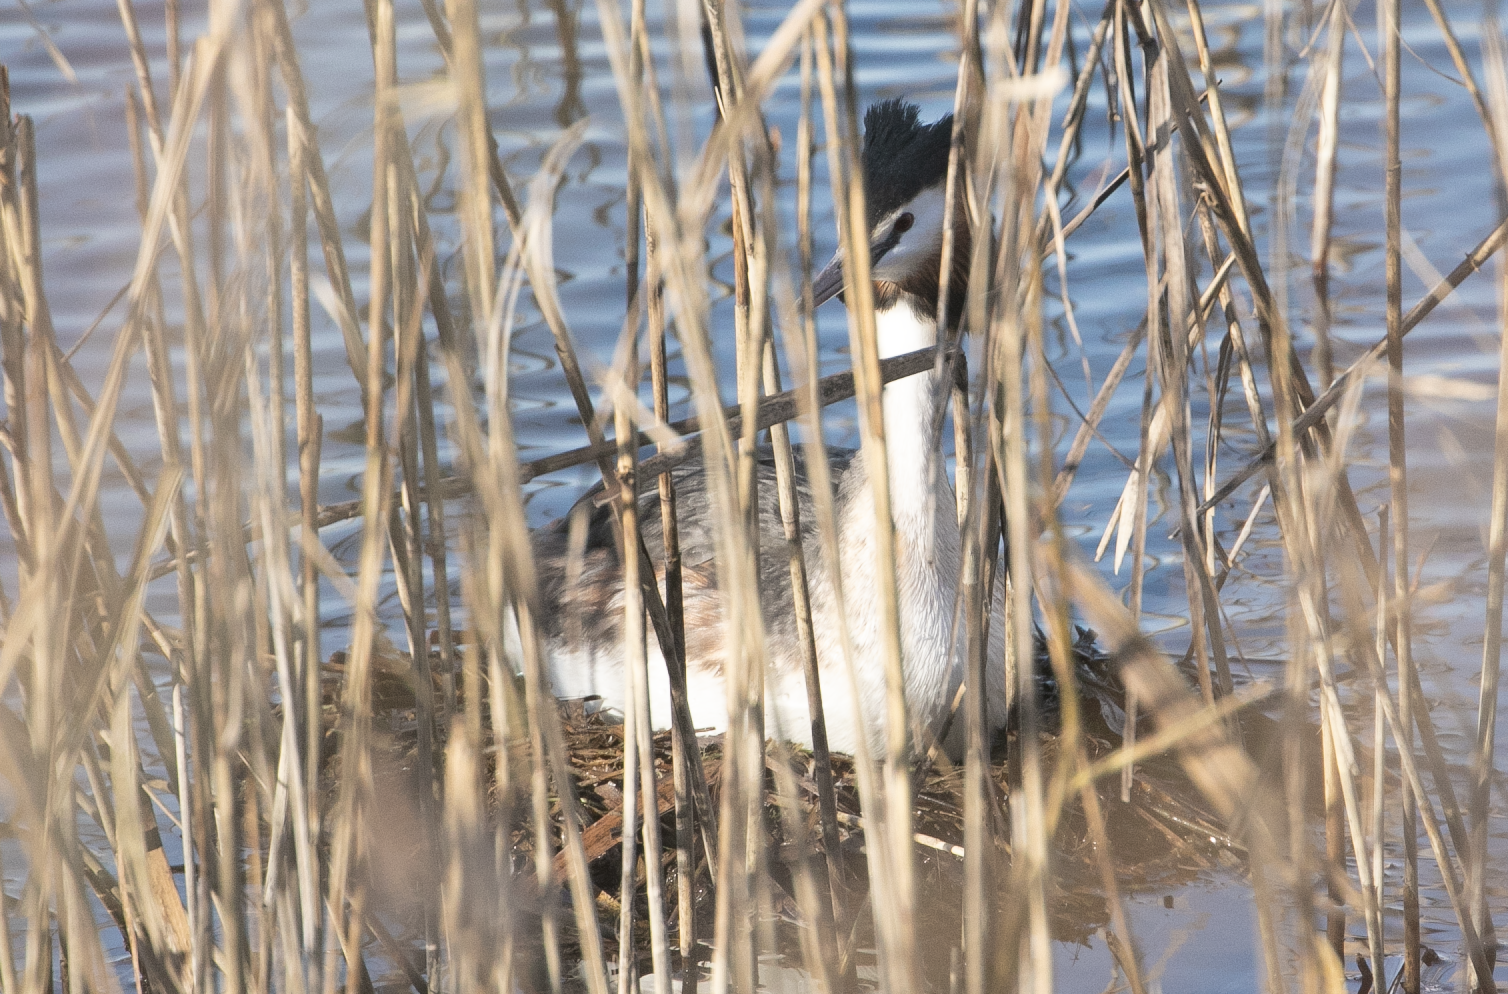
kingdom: Animalia
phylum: Chordata
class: Aves
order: Podicipediformes
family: Podicipedidae
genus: Podiceps
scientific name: Podiceps cristatus
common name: Great crested grebe
